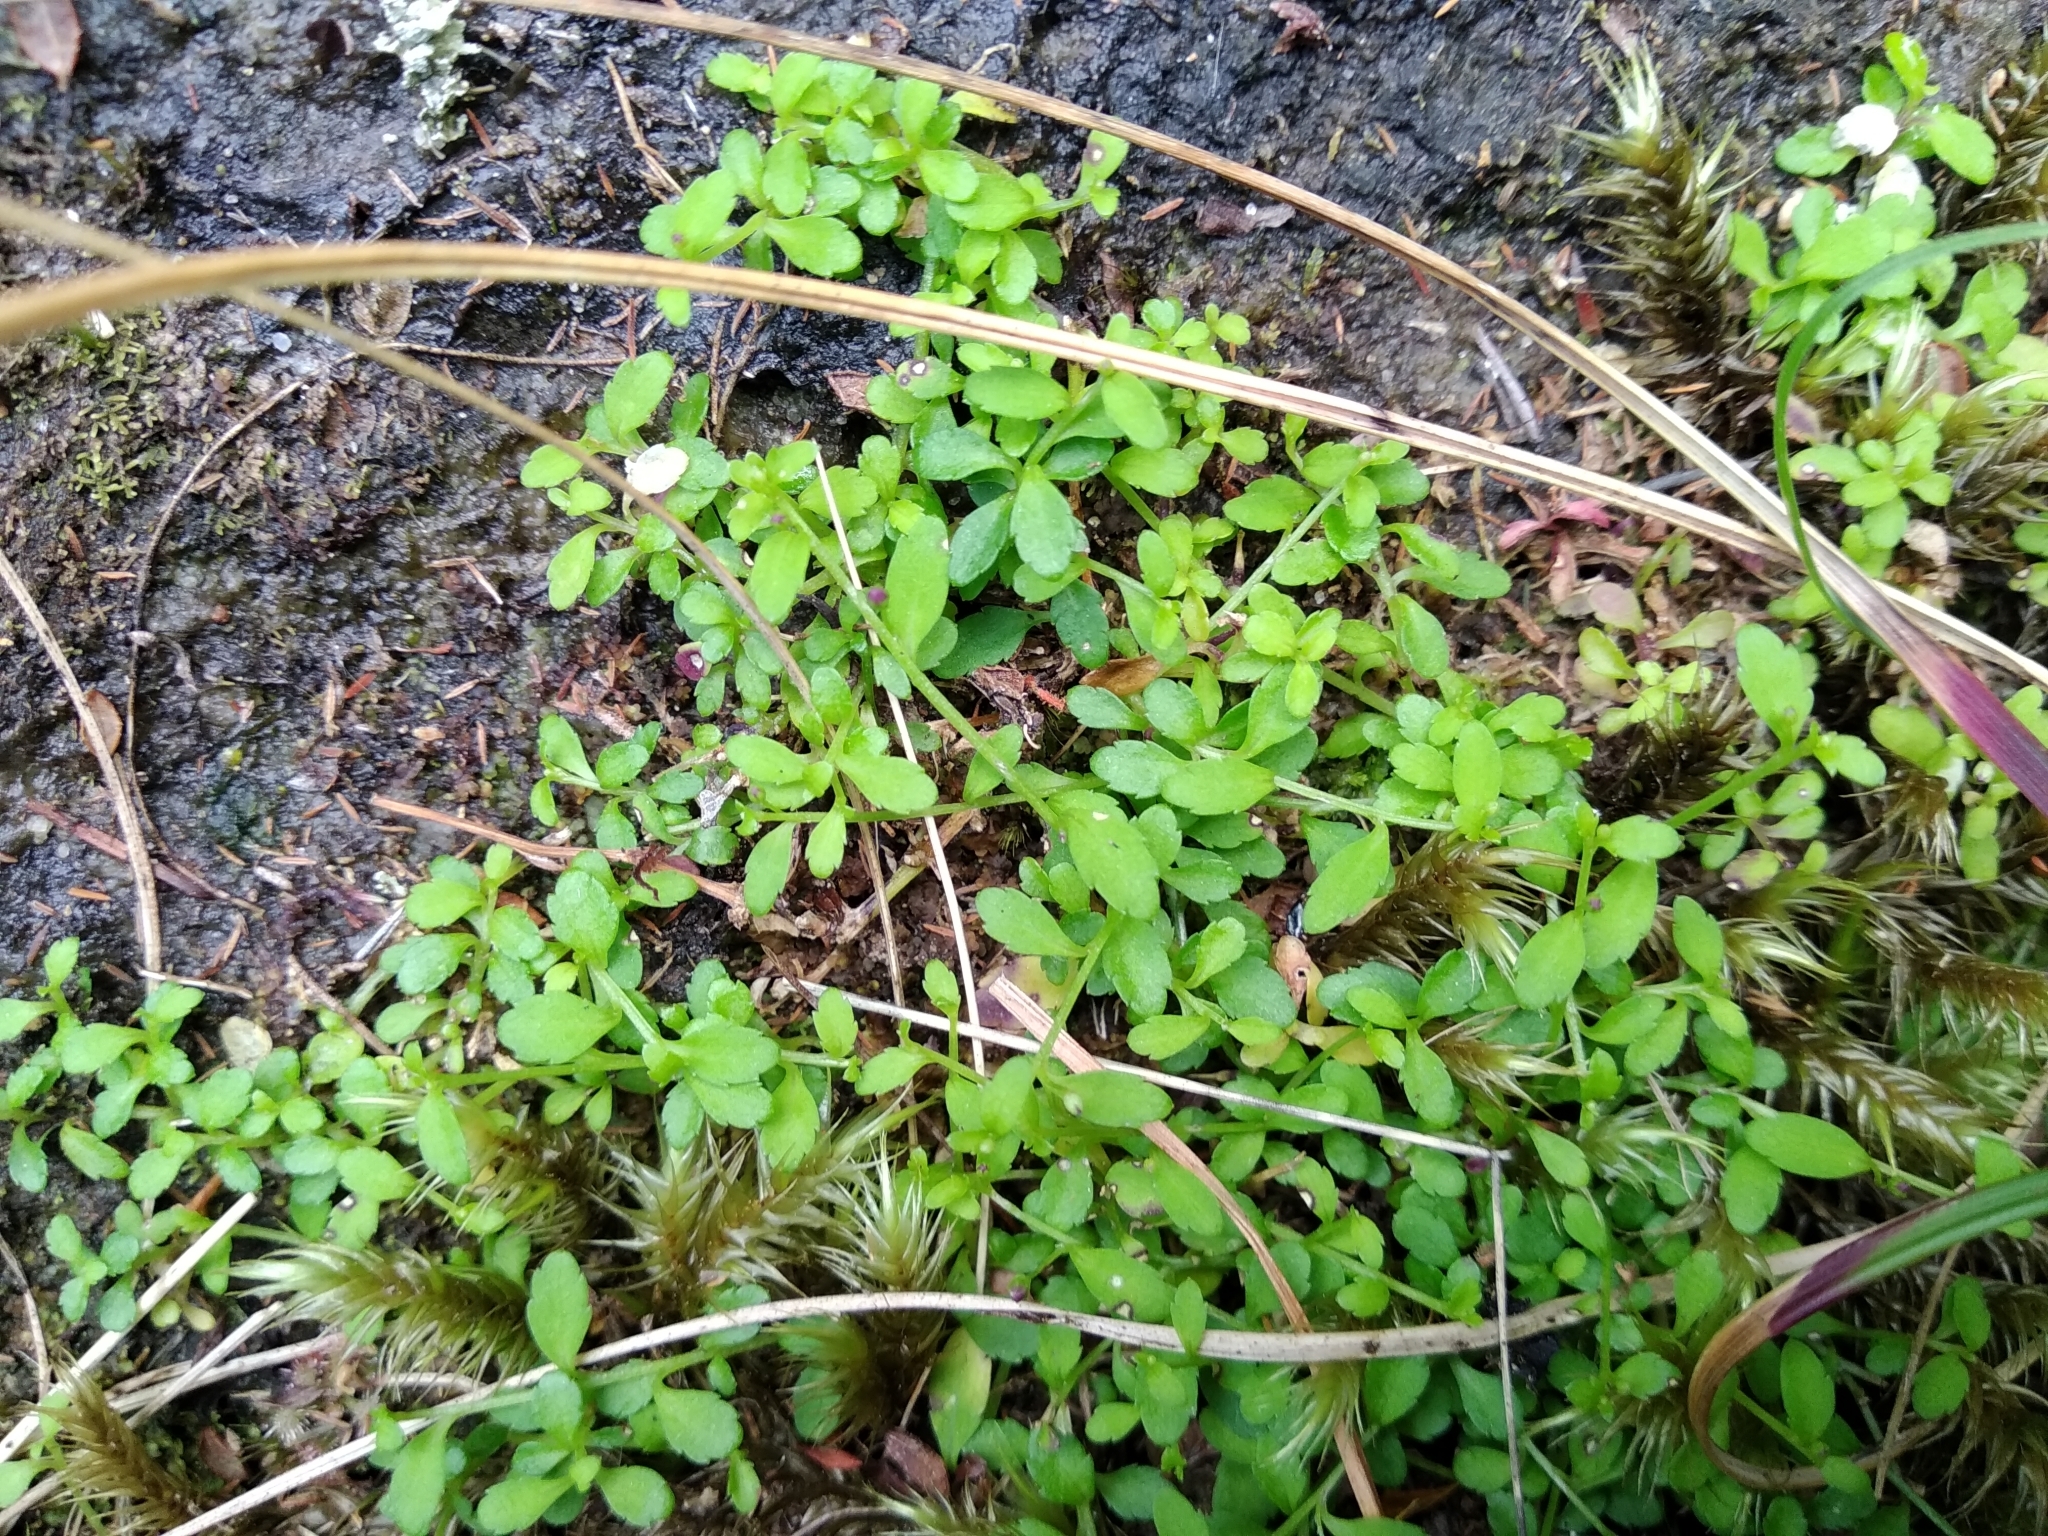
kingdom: Plantae
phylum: Tracheophyta
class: Magnoliopsida
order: Asterales
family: Campanulaceae
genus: Unigenes
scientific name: Unigenes humifusa
